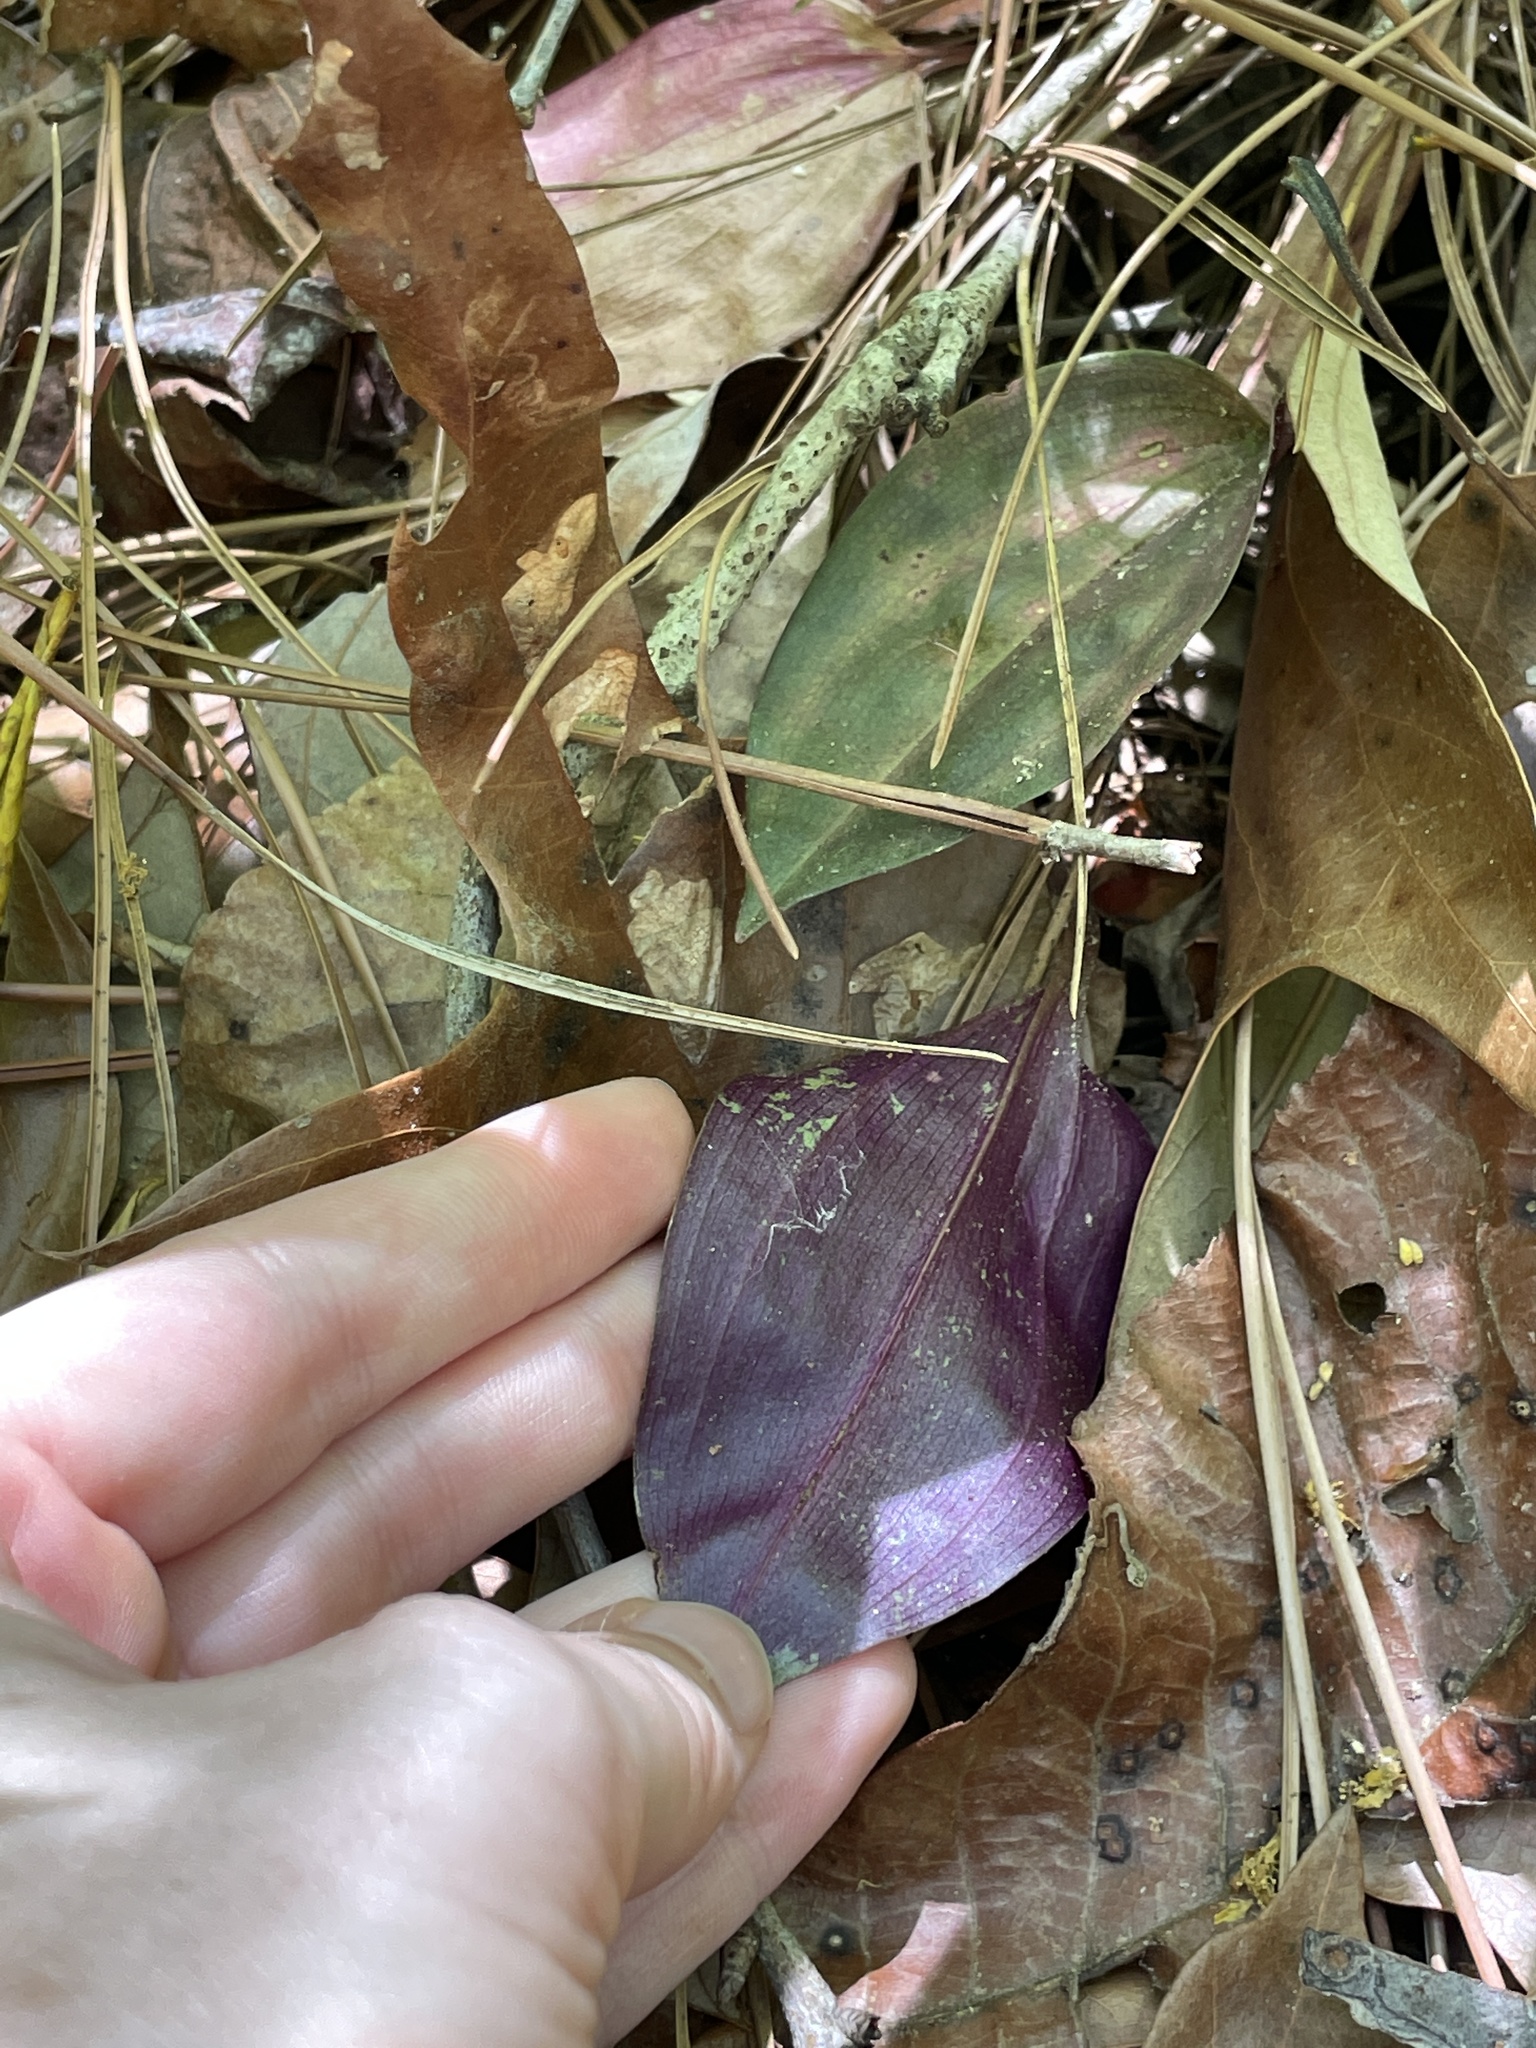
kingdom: Plantae
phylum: Tracheophyta
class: Liliopsida
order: Asparagales
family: Orchidaceae
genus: Tipularia
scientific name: Tipularia discolor
